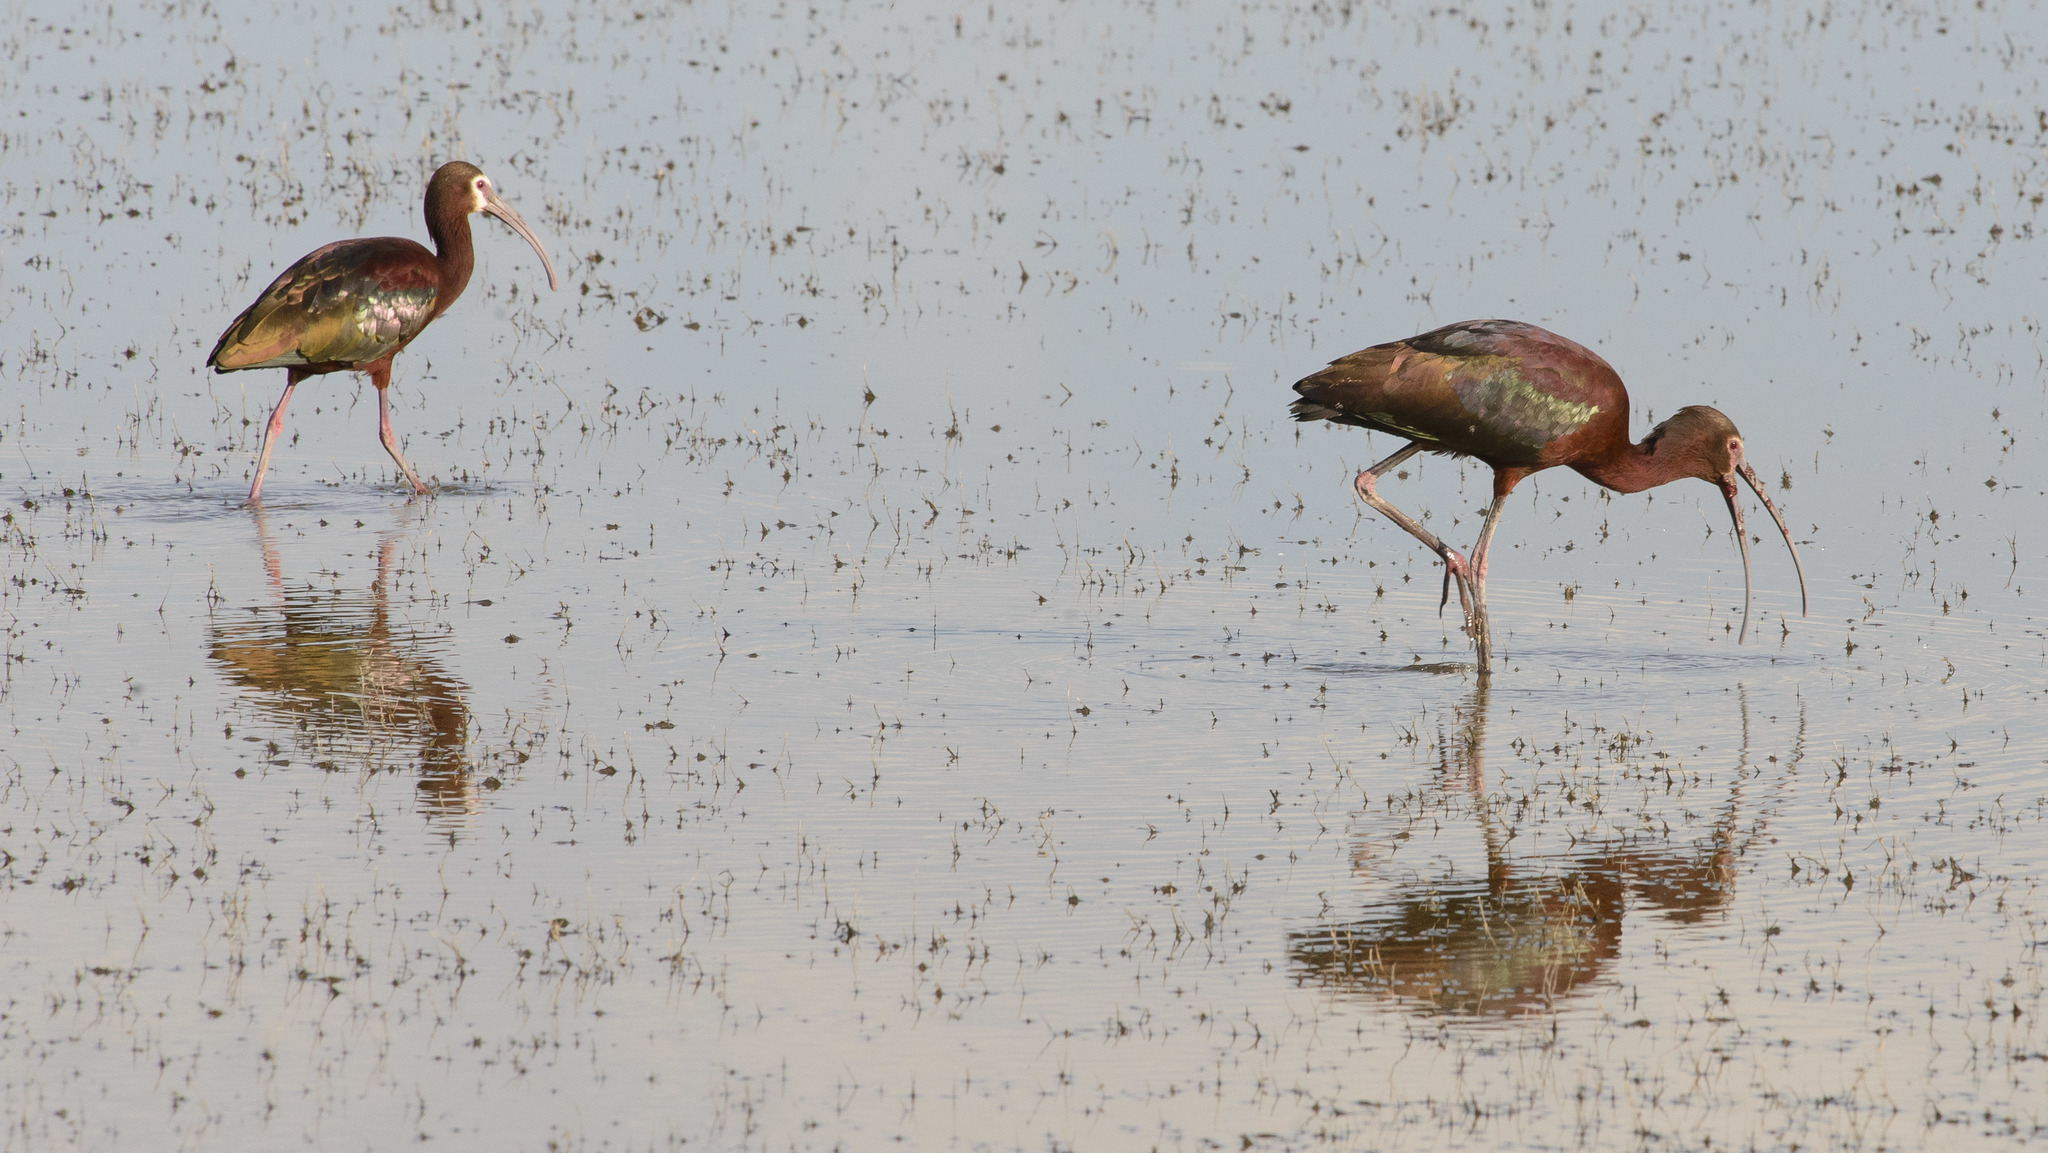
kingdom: Animalia
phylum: Chordata
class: Aves
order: Pelecaniformes
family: Threskiornithidae
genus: Plegadis
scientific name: Plegadis chihi
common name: White-faced ibis
